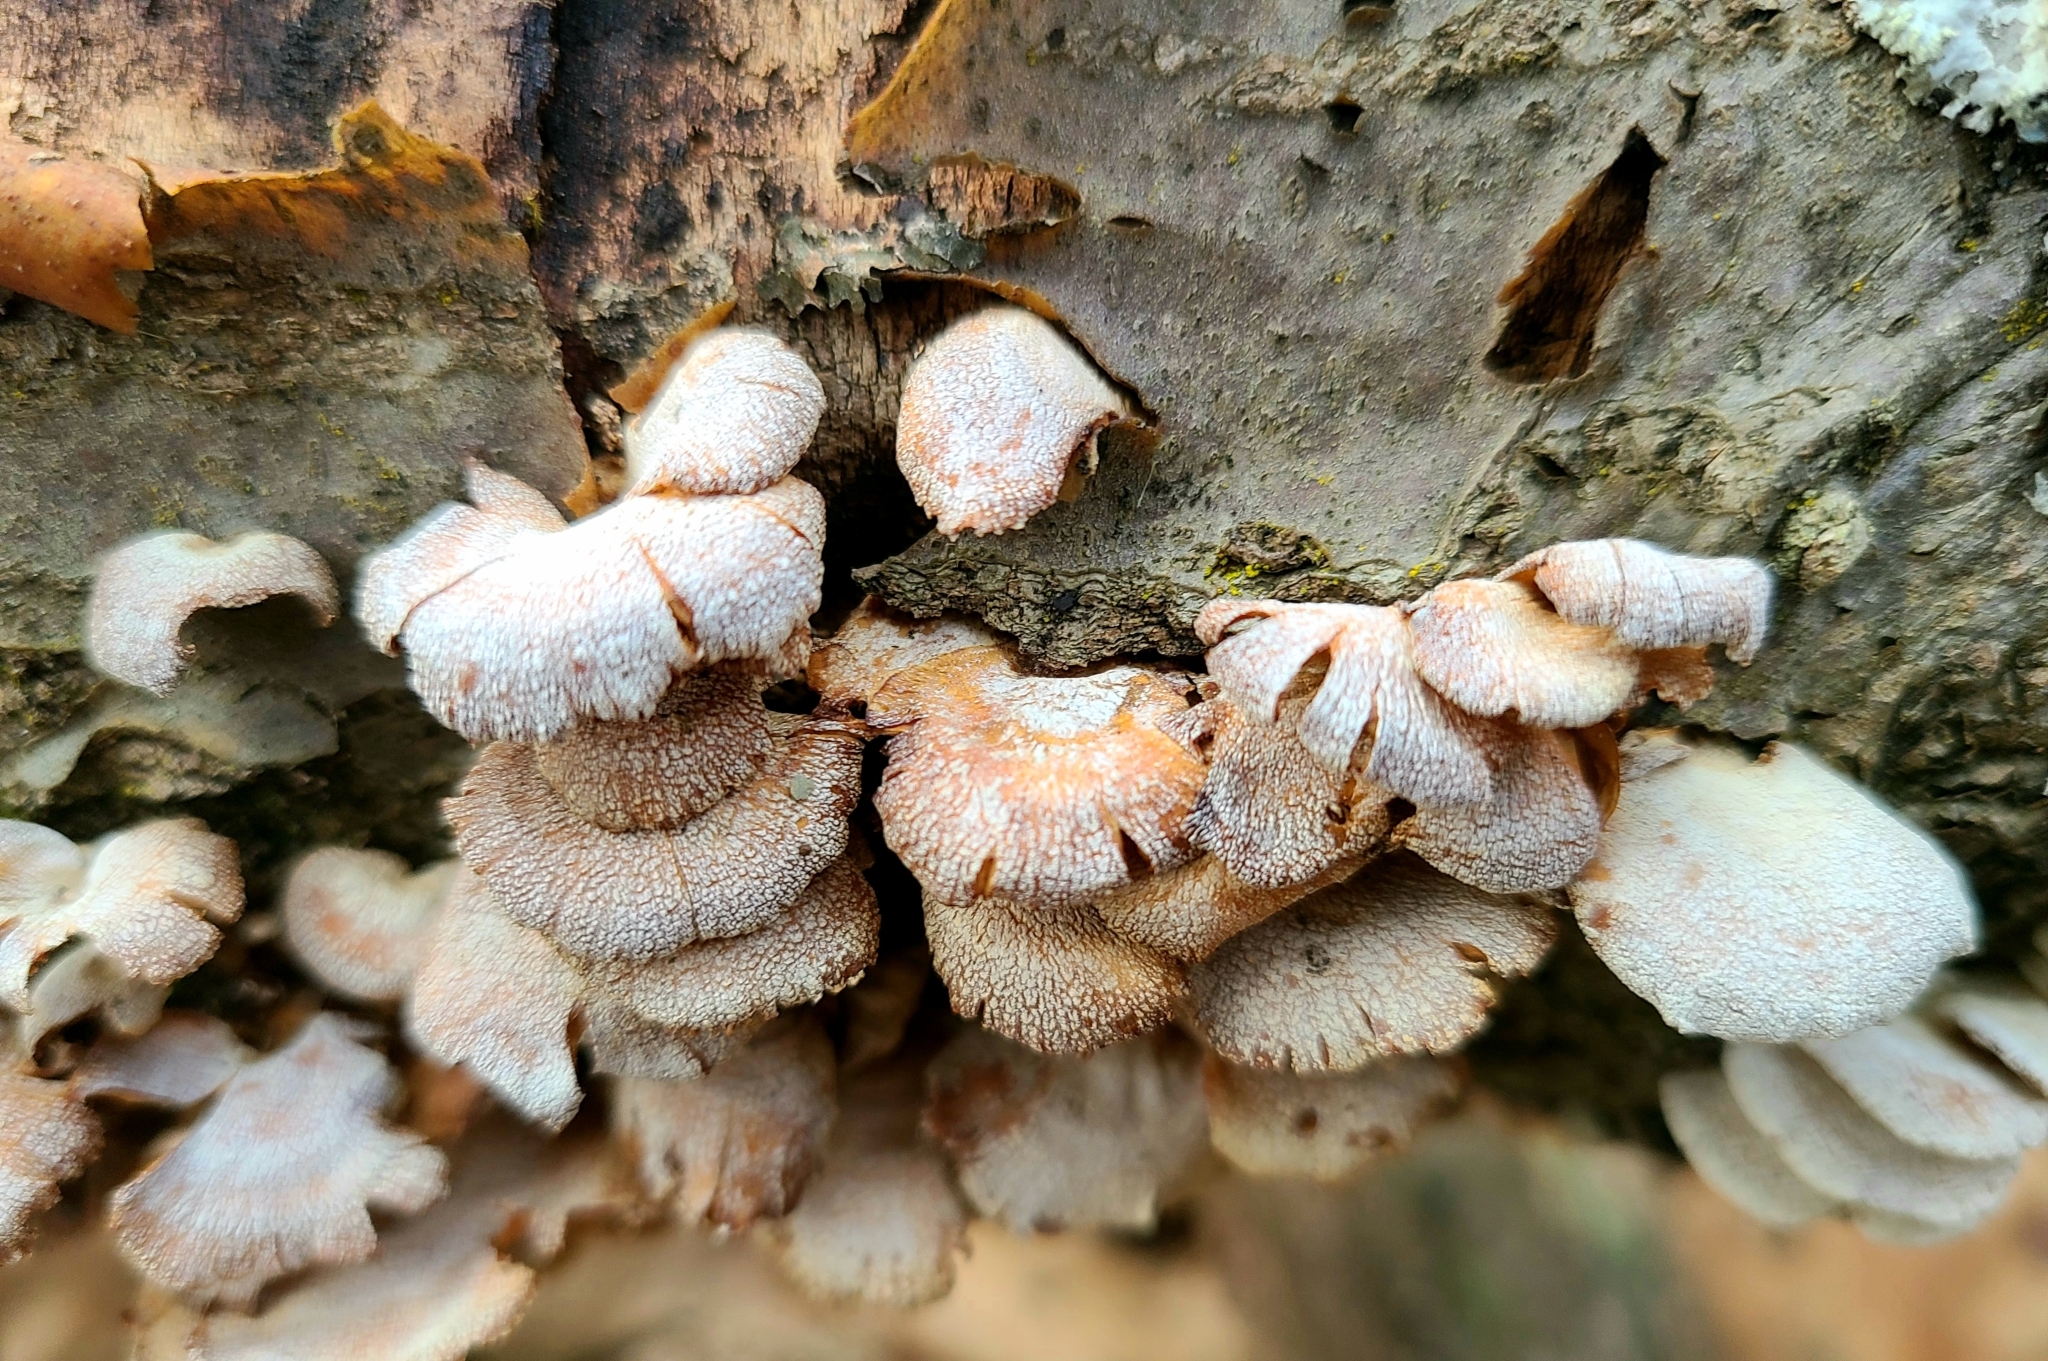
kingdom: Fungi
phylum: Basidiomycota
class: Agaricomycetes
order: Agaricales
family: Mycenaceae
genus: Panellus
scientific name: Panellus stipticus
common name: Bitter oysterling
